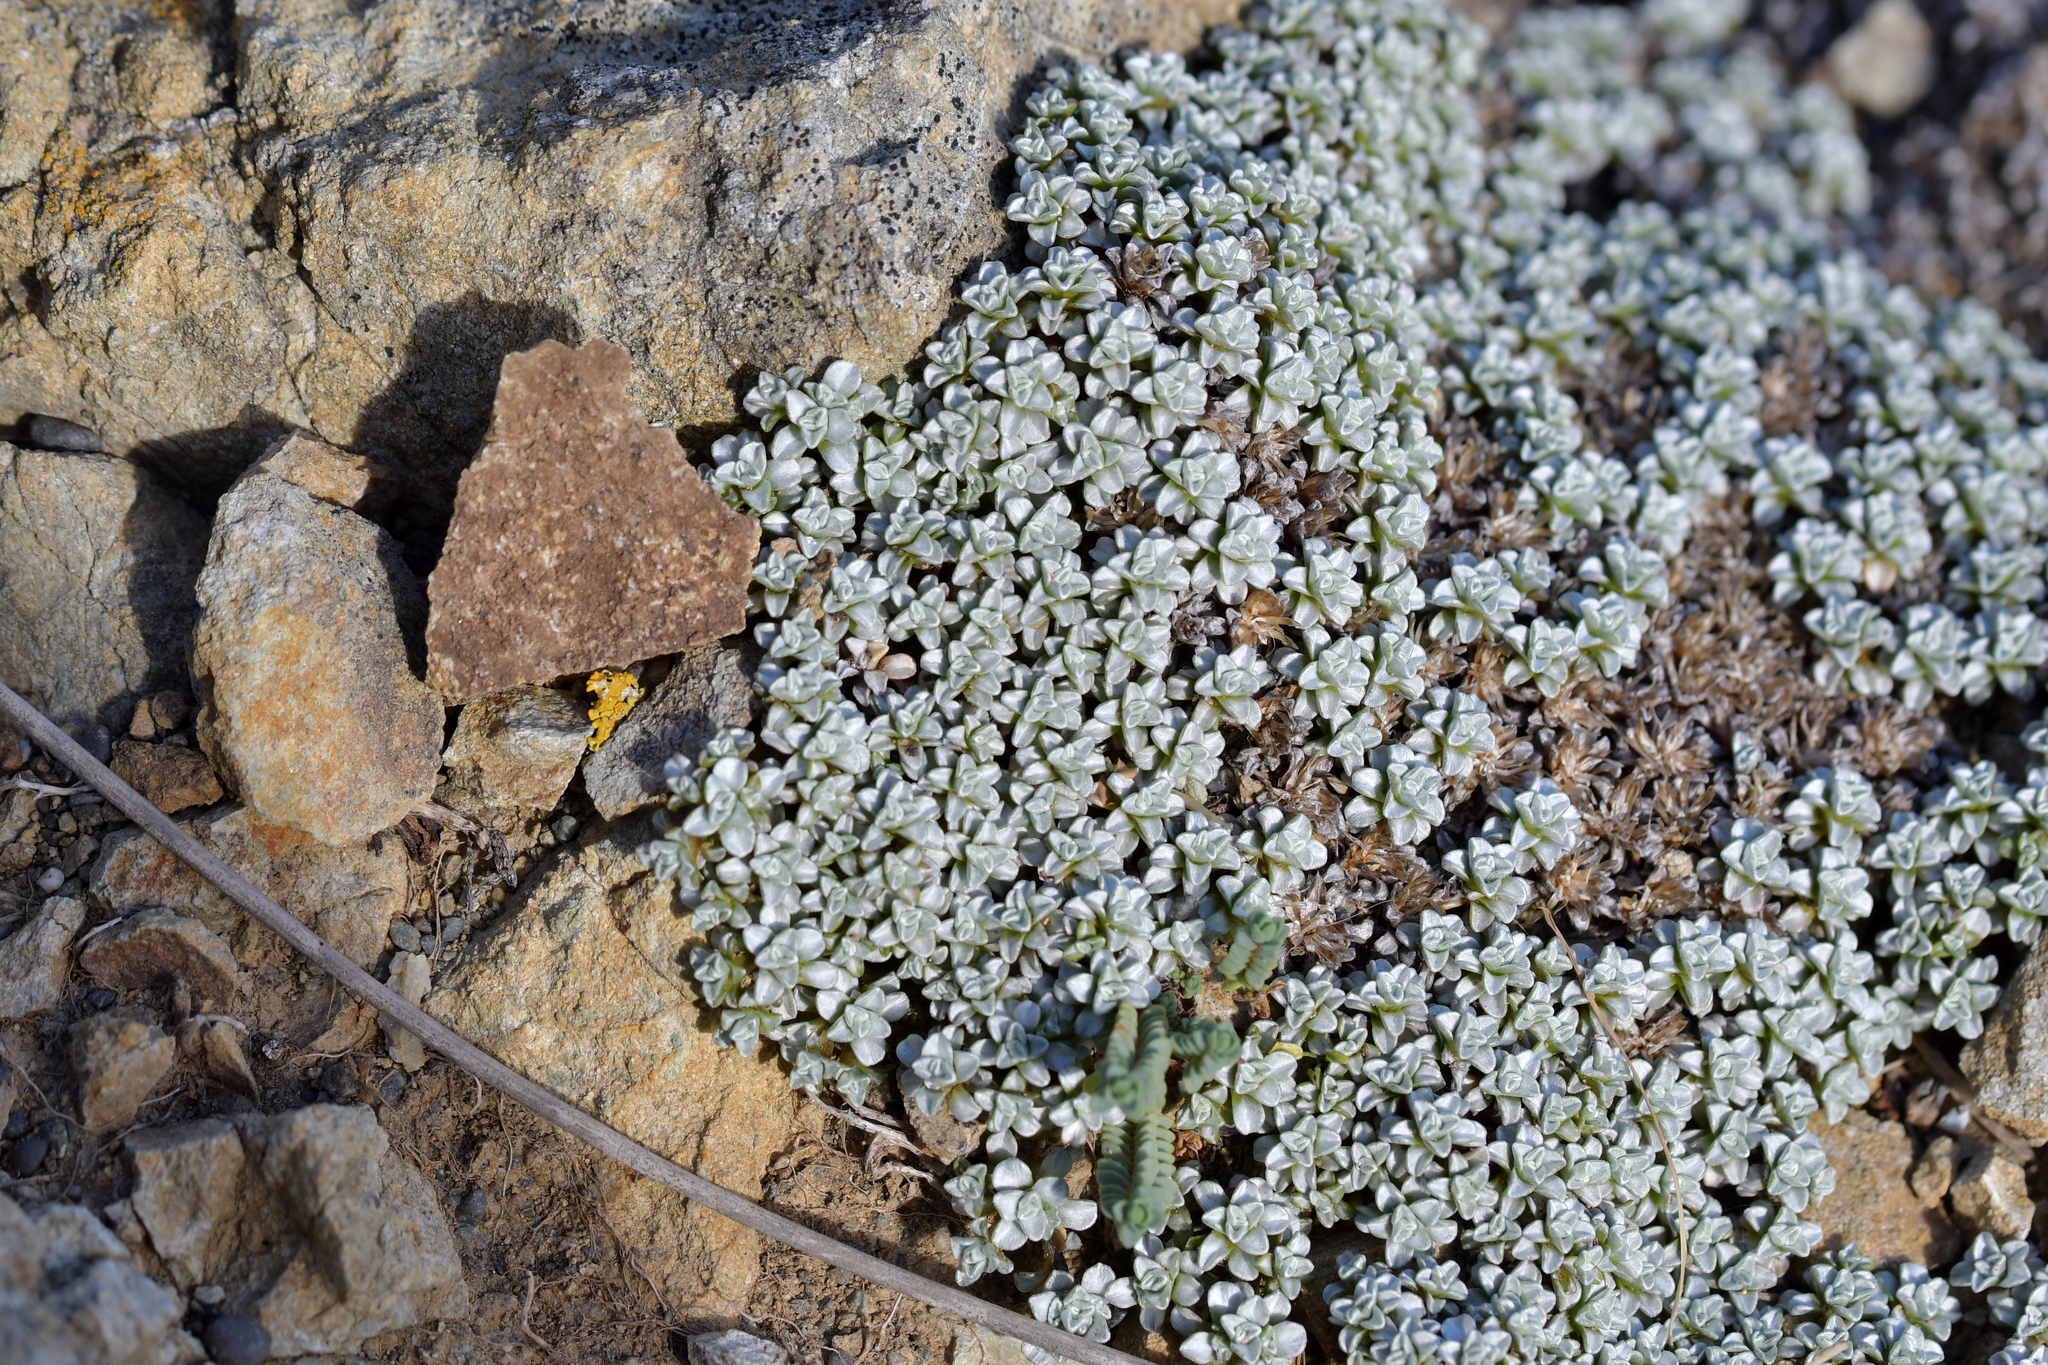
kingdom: Plantae
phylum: Tracheophyta
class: Magnoliopsida
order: Asterales
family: Asteraceae
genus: Raoulia
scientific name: Raoulia hookeri
